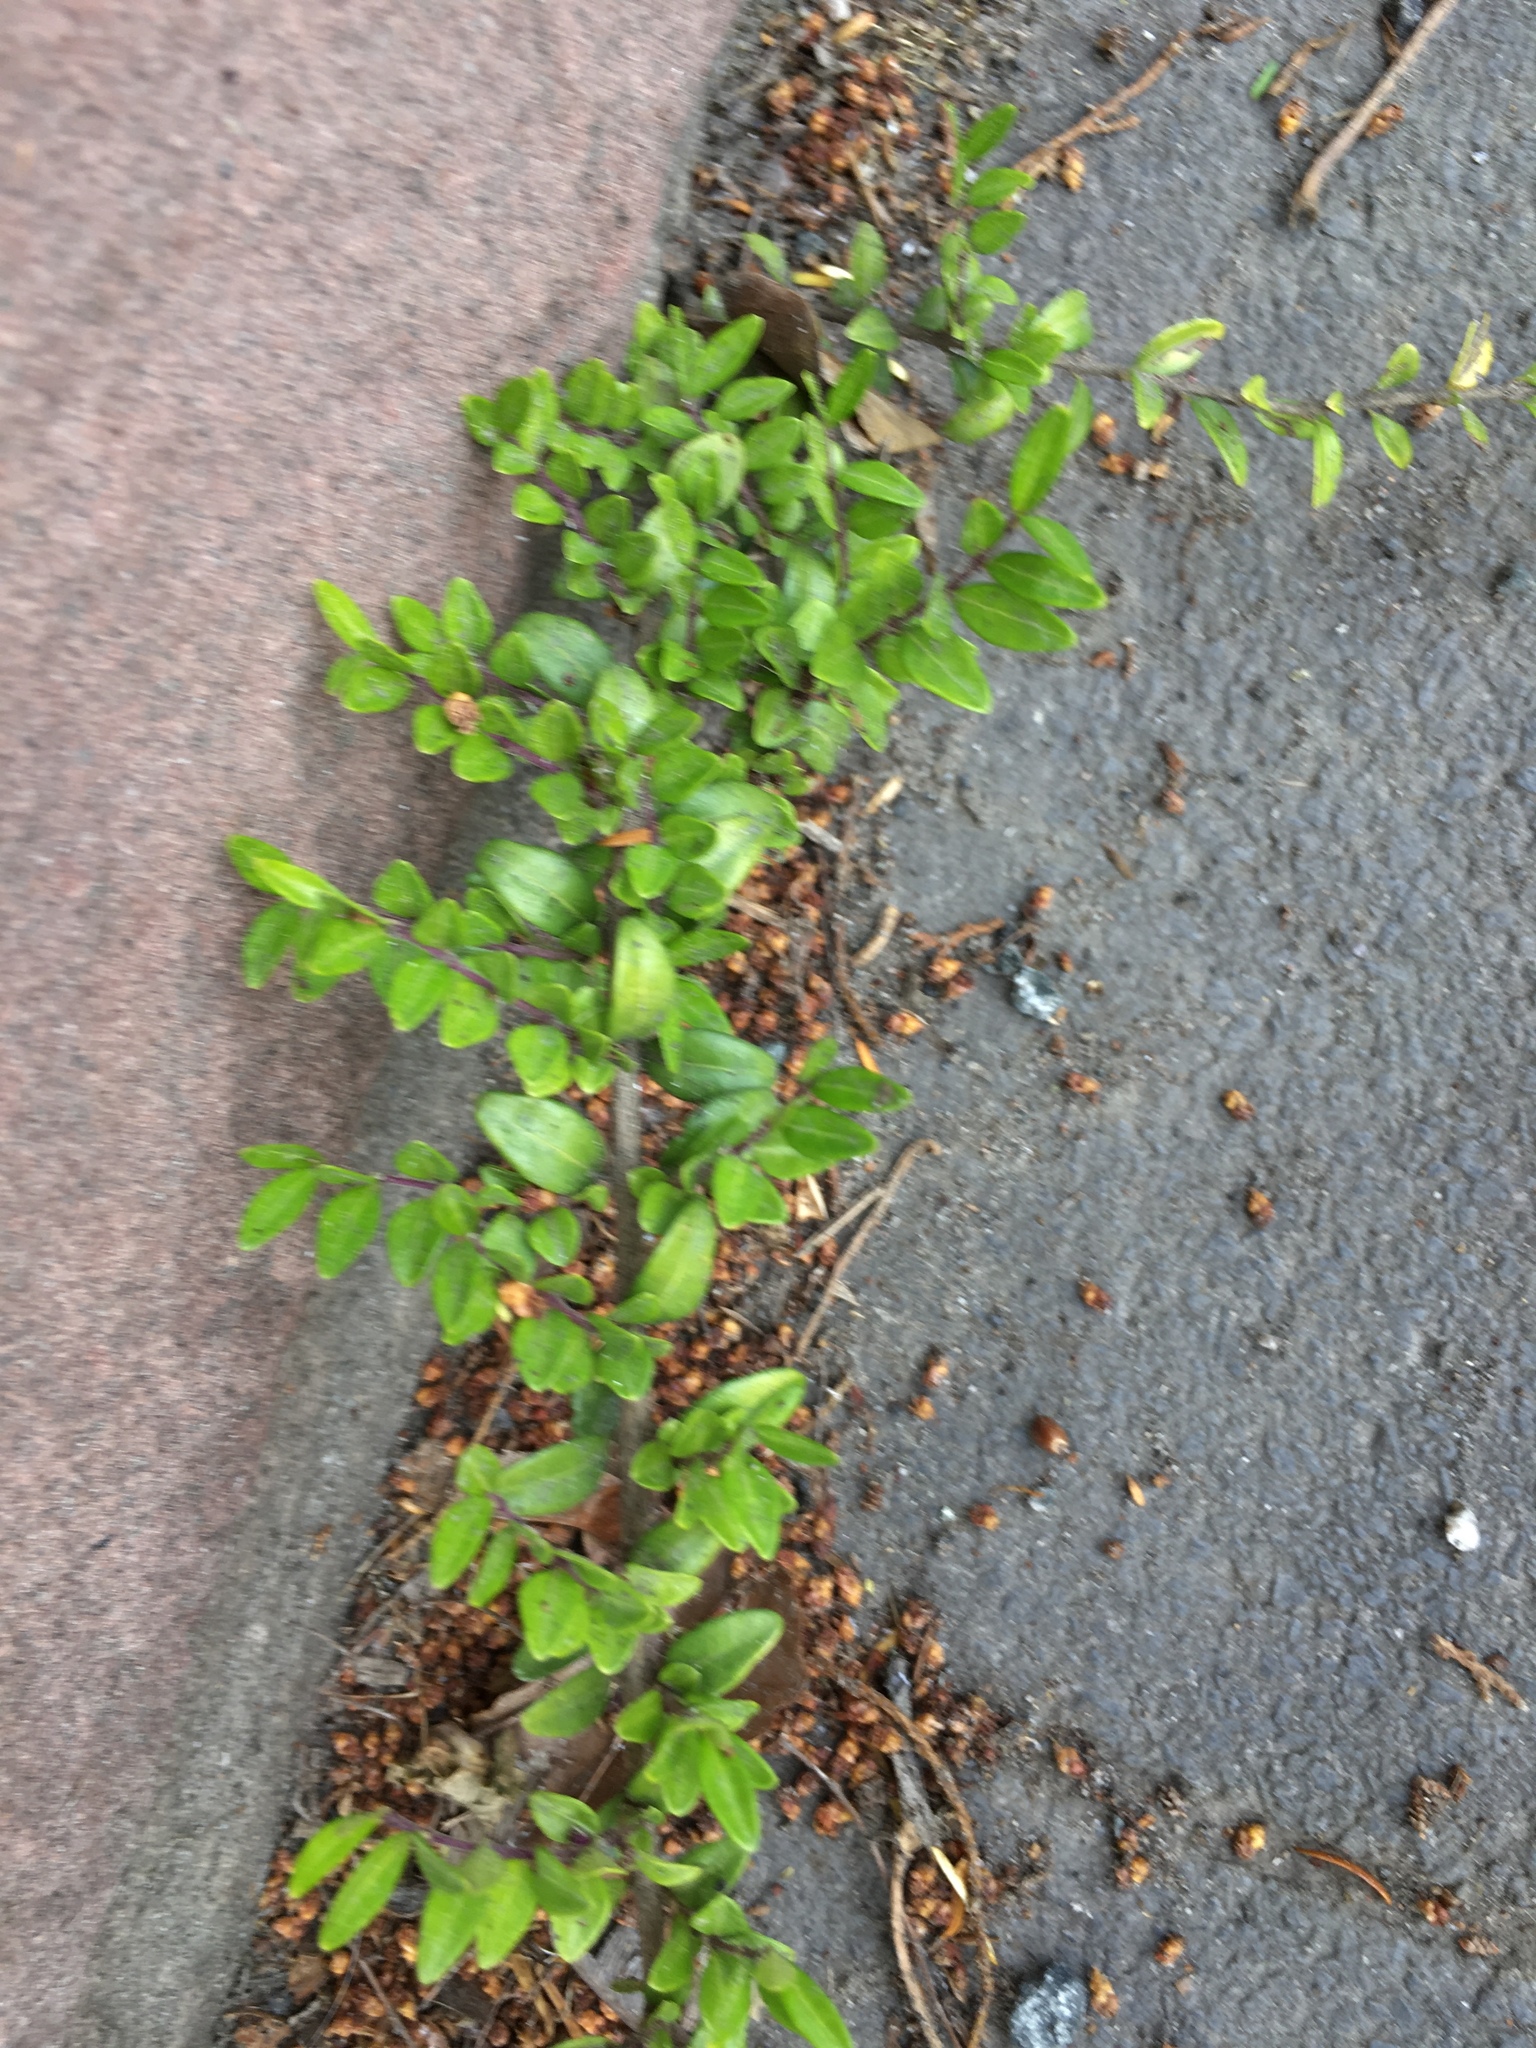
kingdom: Plantae
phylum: Tracheophyta
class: Magnoliopsida
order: Dipsacales
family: Caprifoliaceae
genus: Lonicera
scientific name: Lonicera ligustrina
